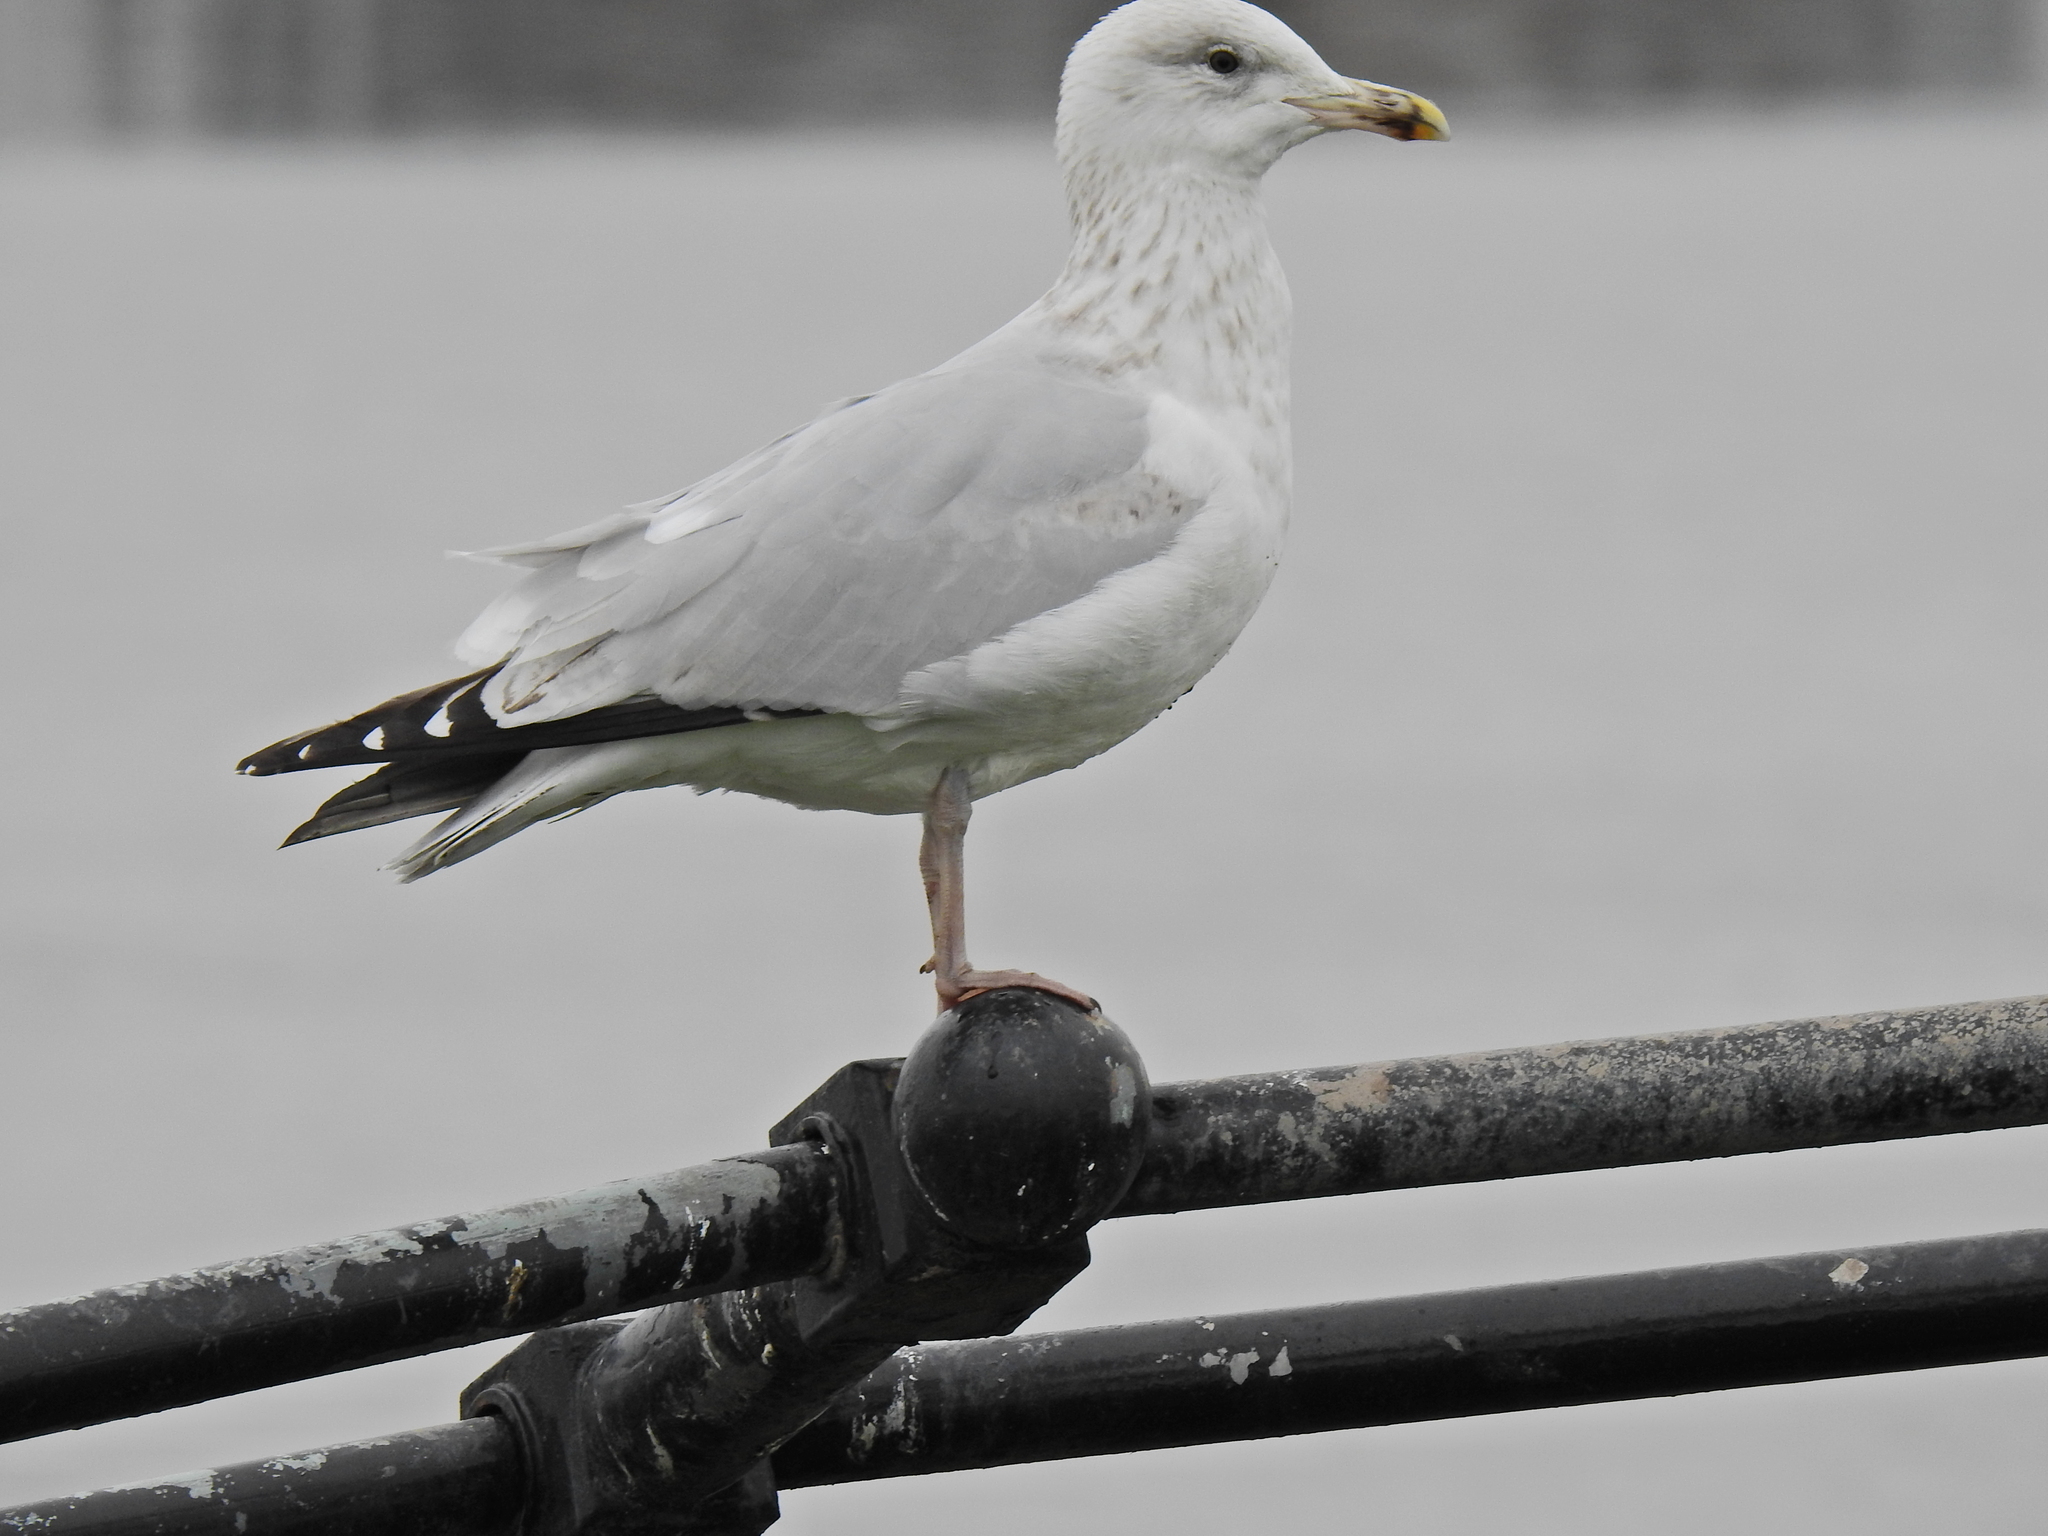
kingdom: Animalia
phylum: Chordata
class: Aves
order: Charadriiformes
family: Laridae
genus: Larus
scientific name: Larus argentatus
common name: Herring gull
